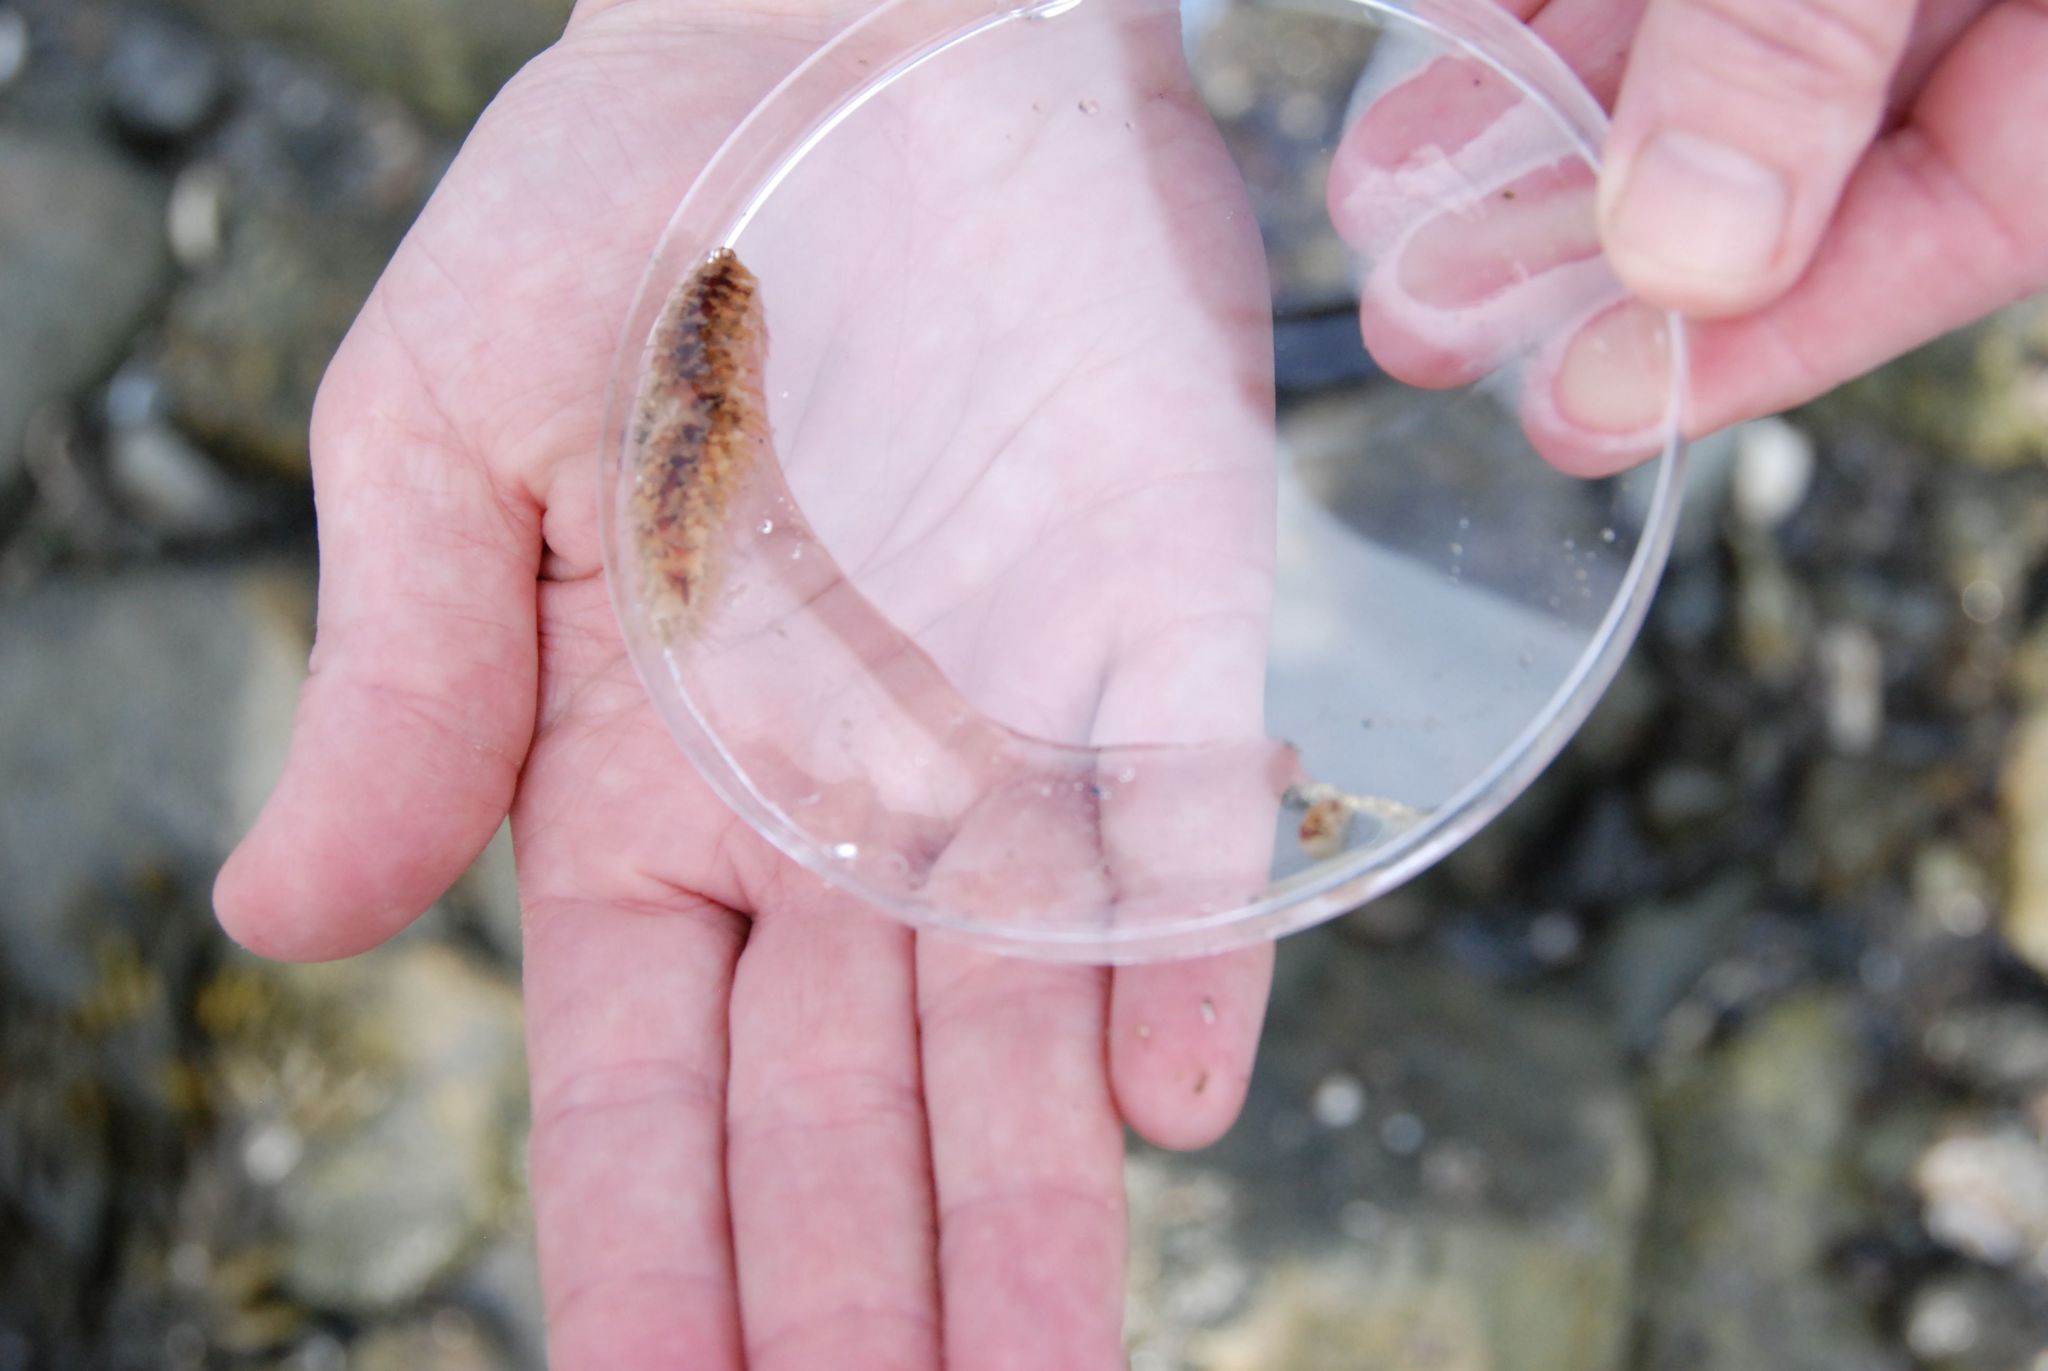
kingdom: Animalia
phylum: Annelida
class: Polychaeta
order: Phyllodocida
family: Polynoidae
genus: Harmothoe
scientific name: Harmothoe imbricata
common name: Fifteen-scaled worm
